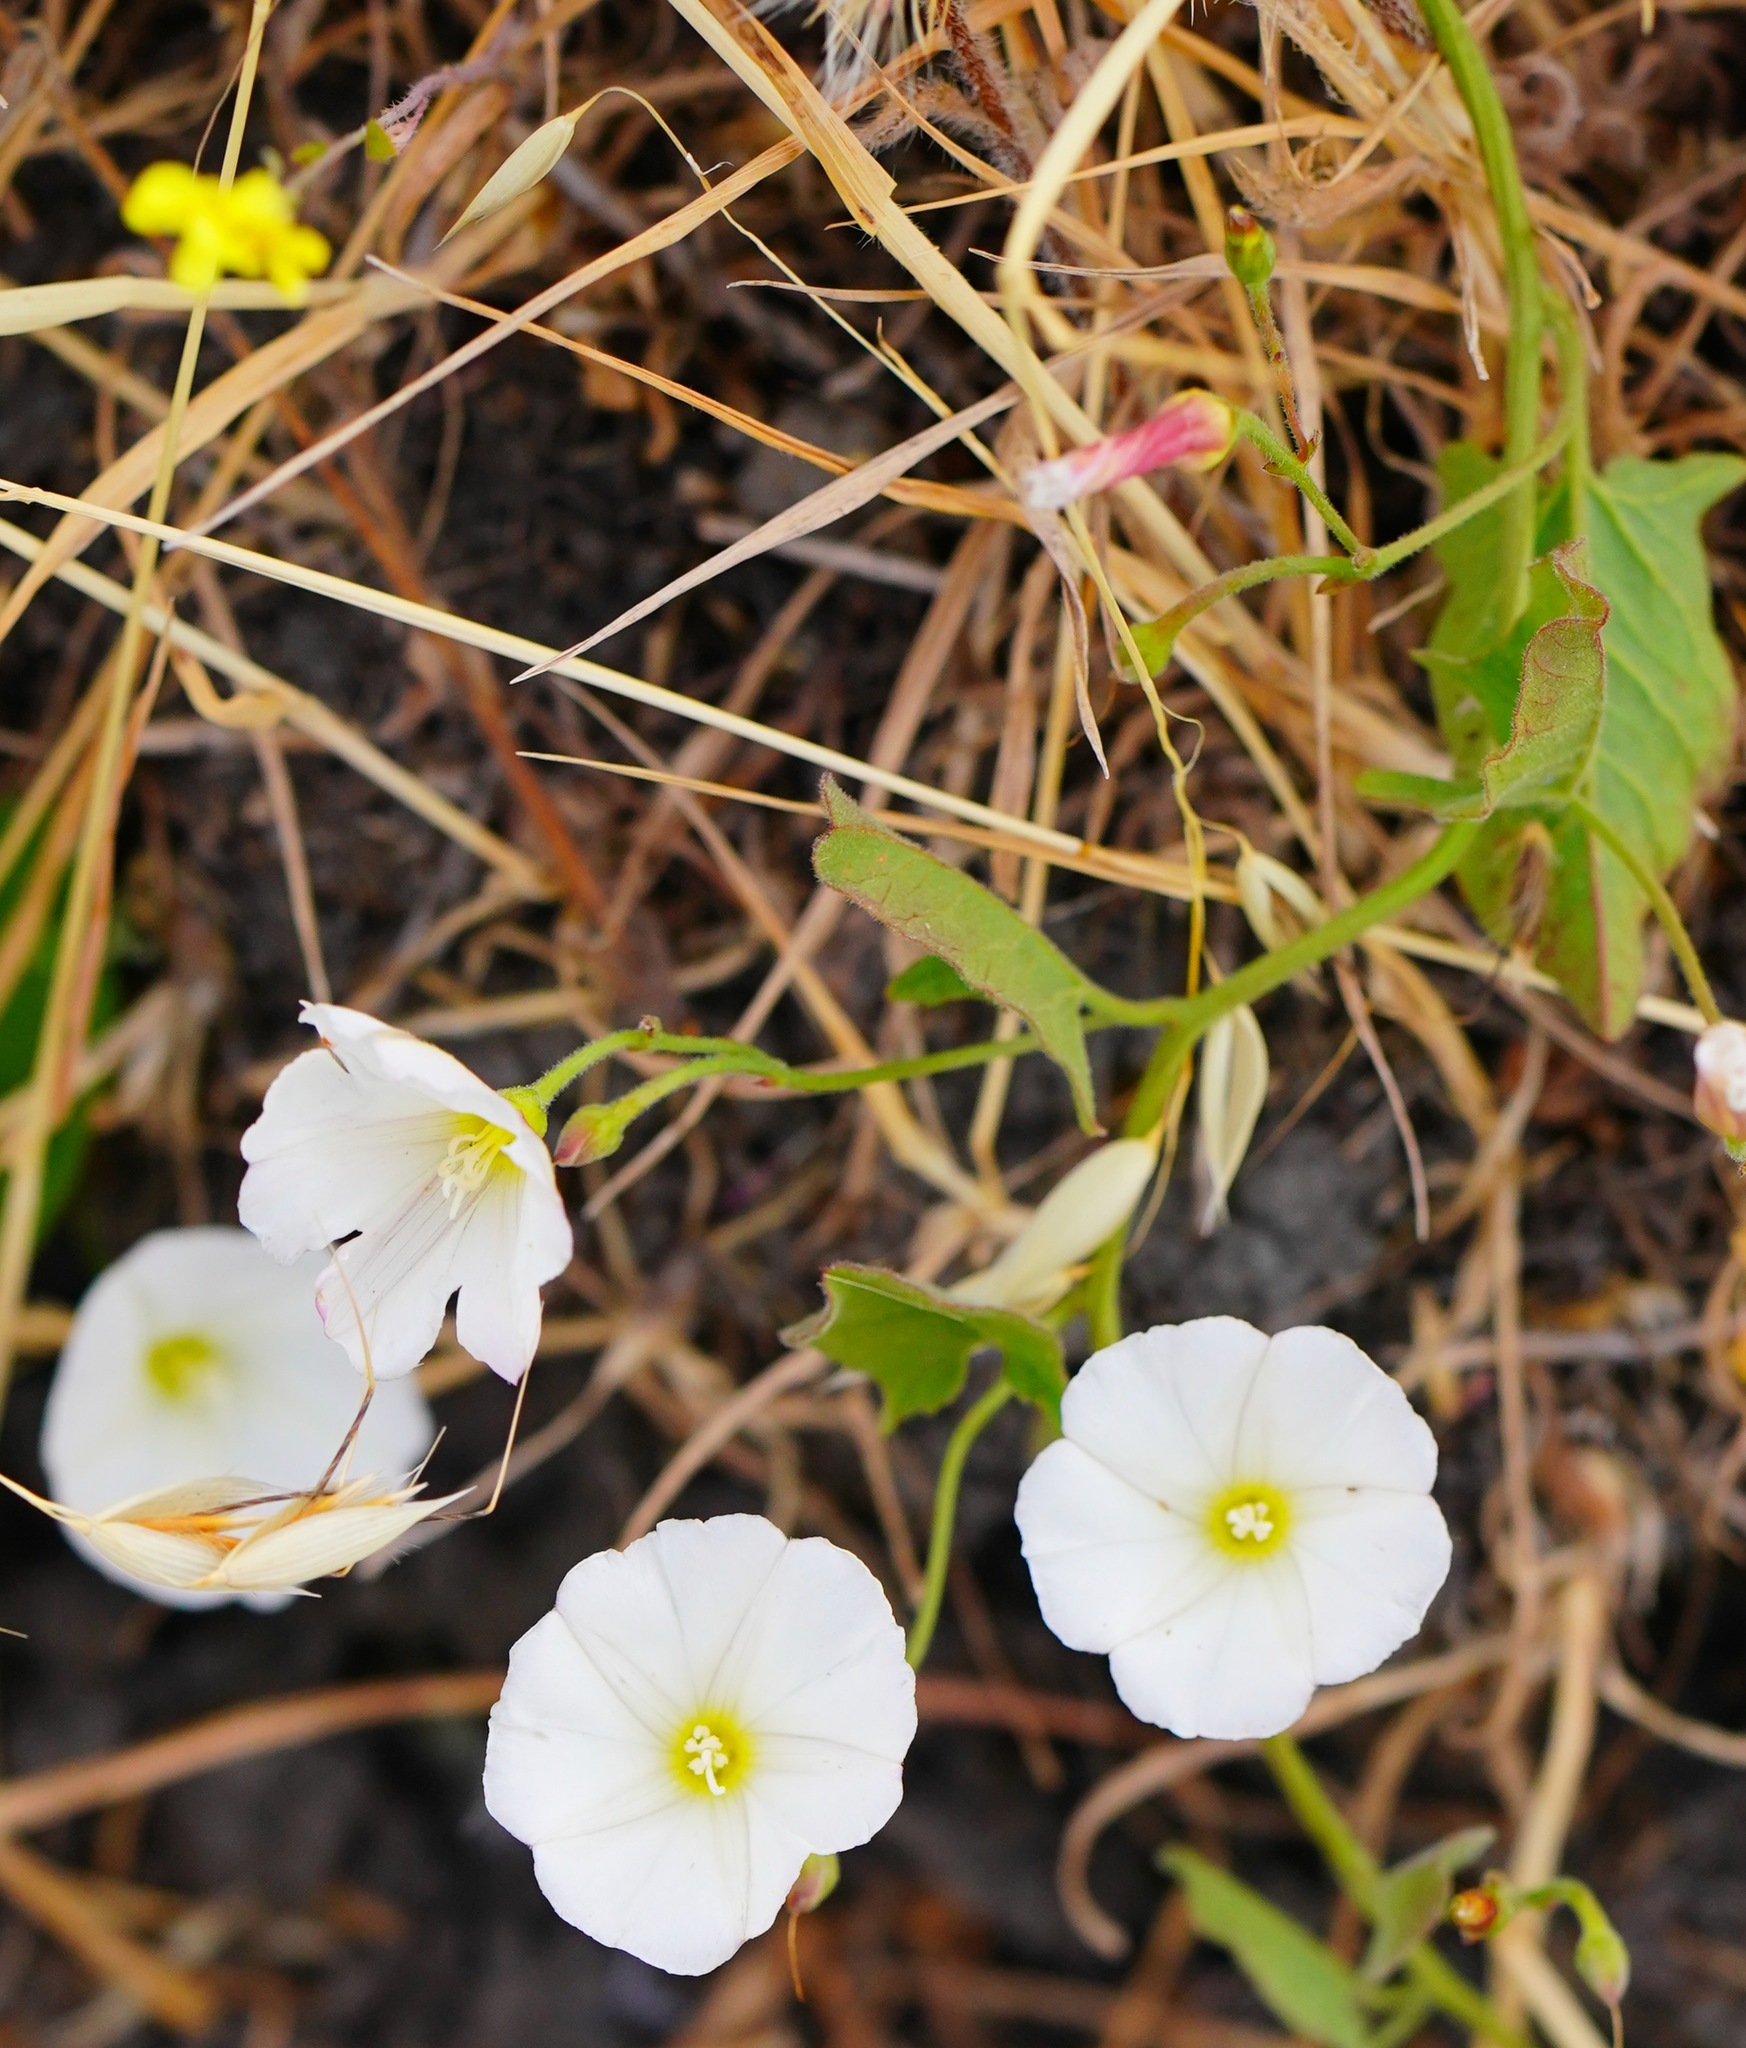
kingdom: Plantae
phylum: Tracheophyta
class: Magnoliopsida
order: Solanales
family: Convolvulaceae
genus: Convolvulus
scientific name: Convolvulus arvensis
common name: Field bindweed
